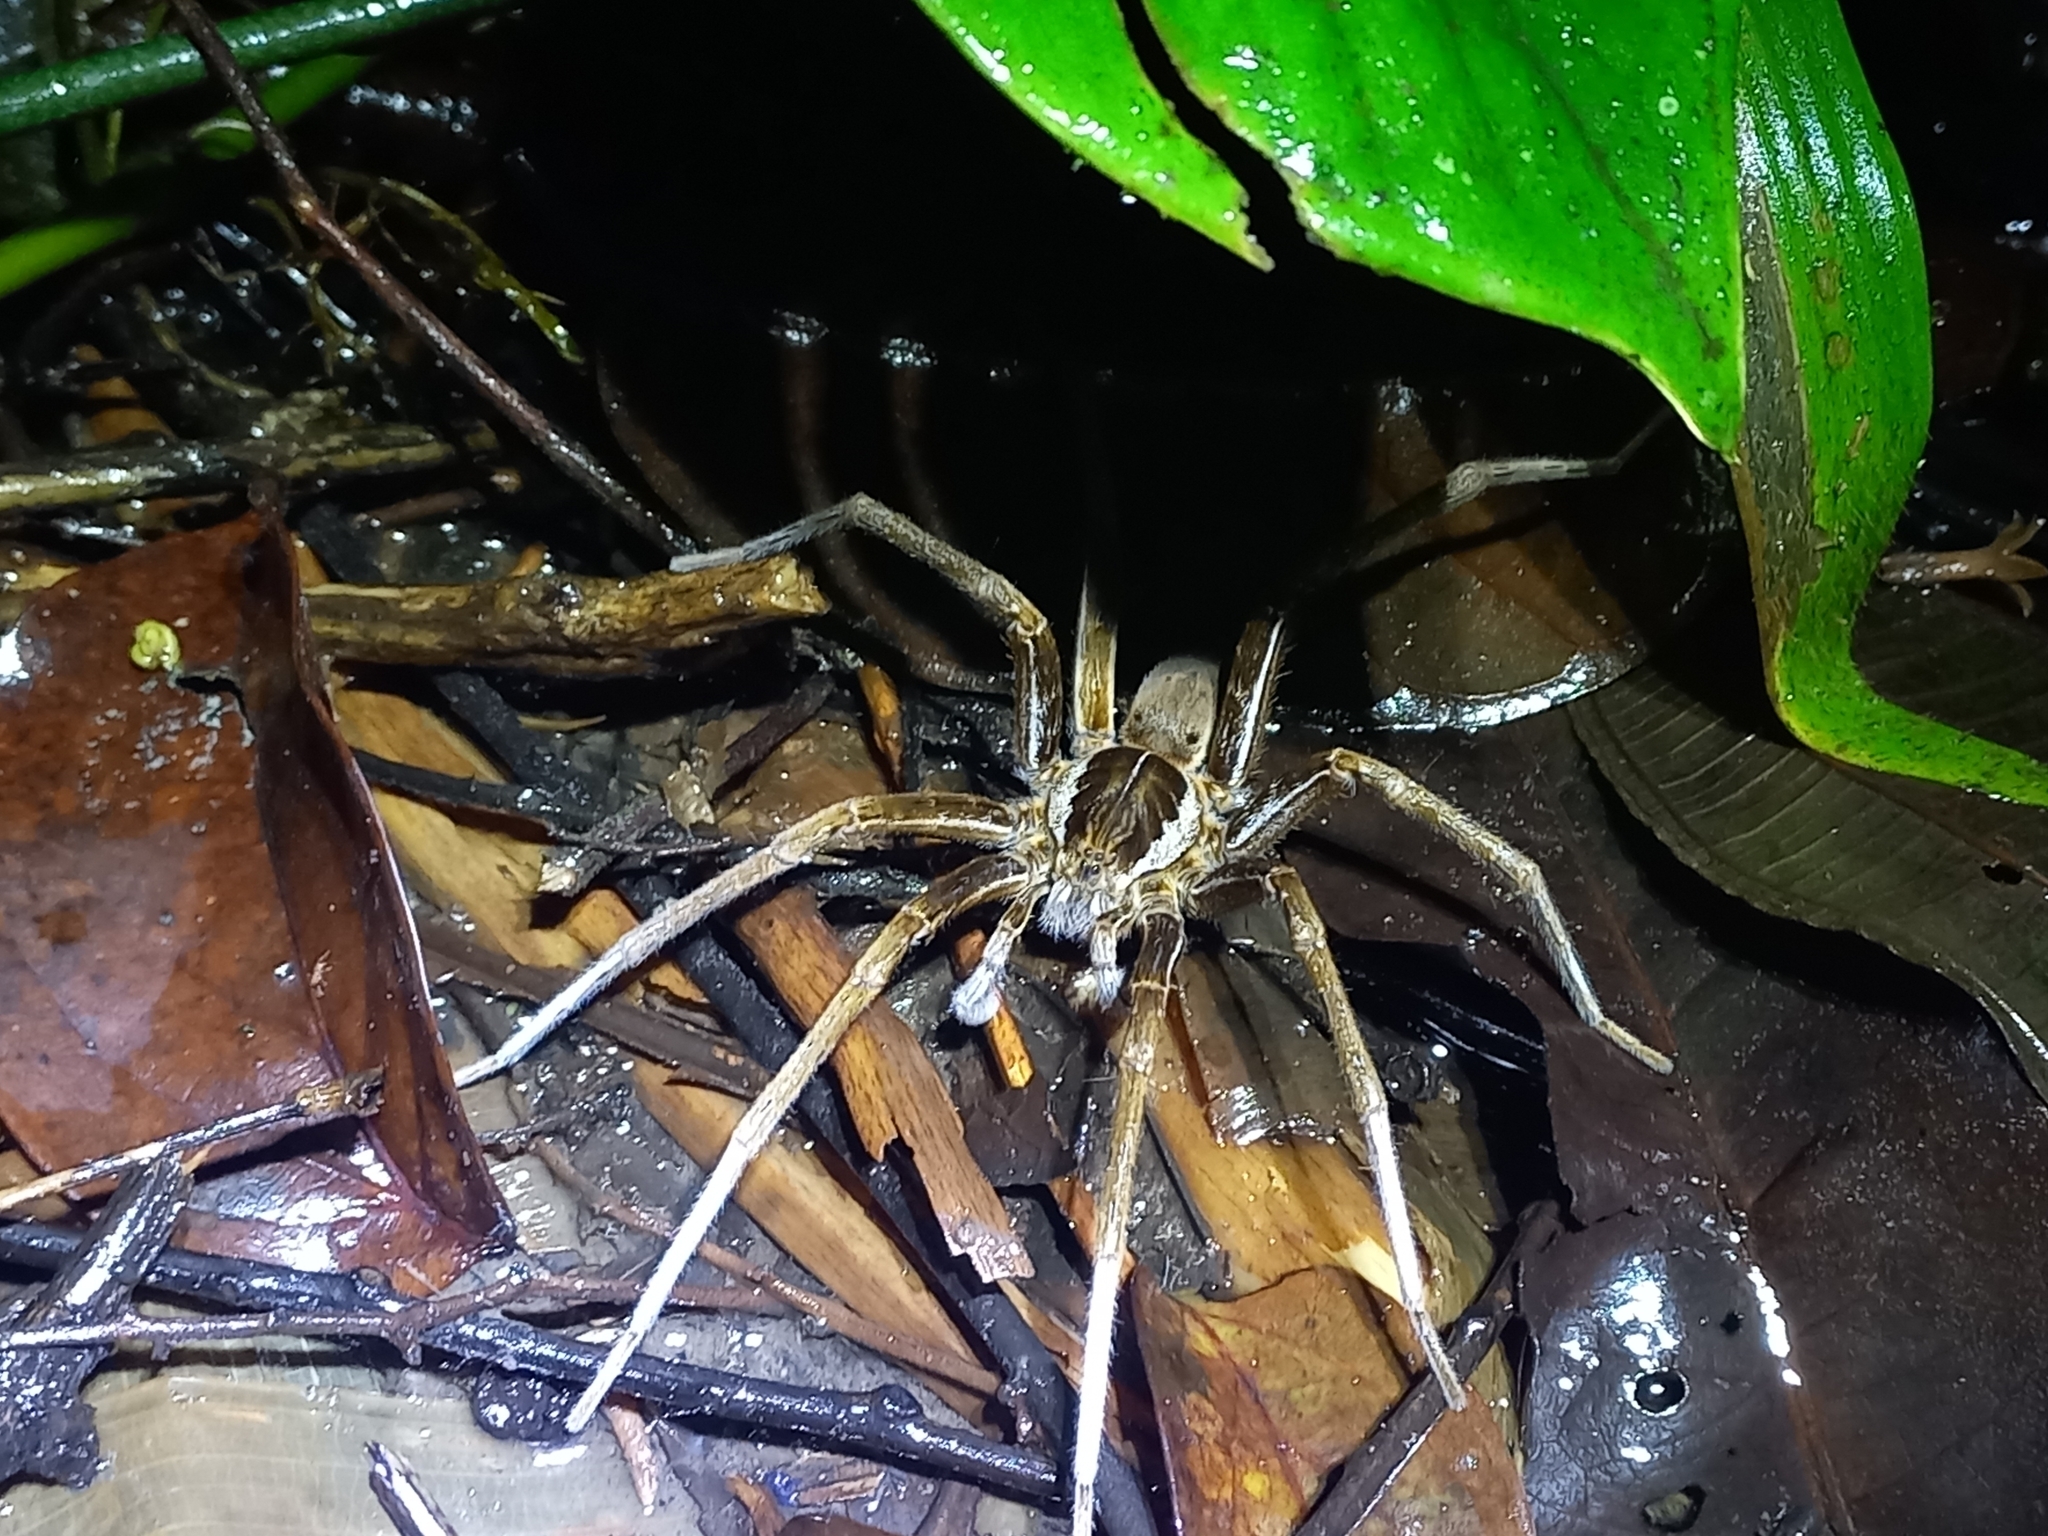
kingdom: Animalia
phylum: Arthropoda
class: Arachnida
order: Araneae
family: Ctenidae
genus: Ancylometes
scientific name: Ancylometes
